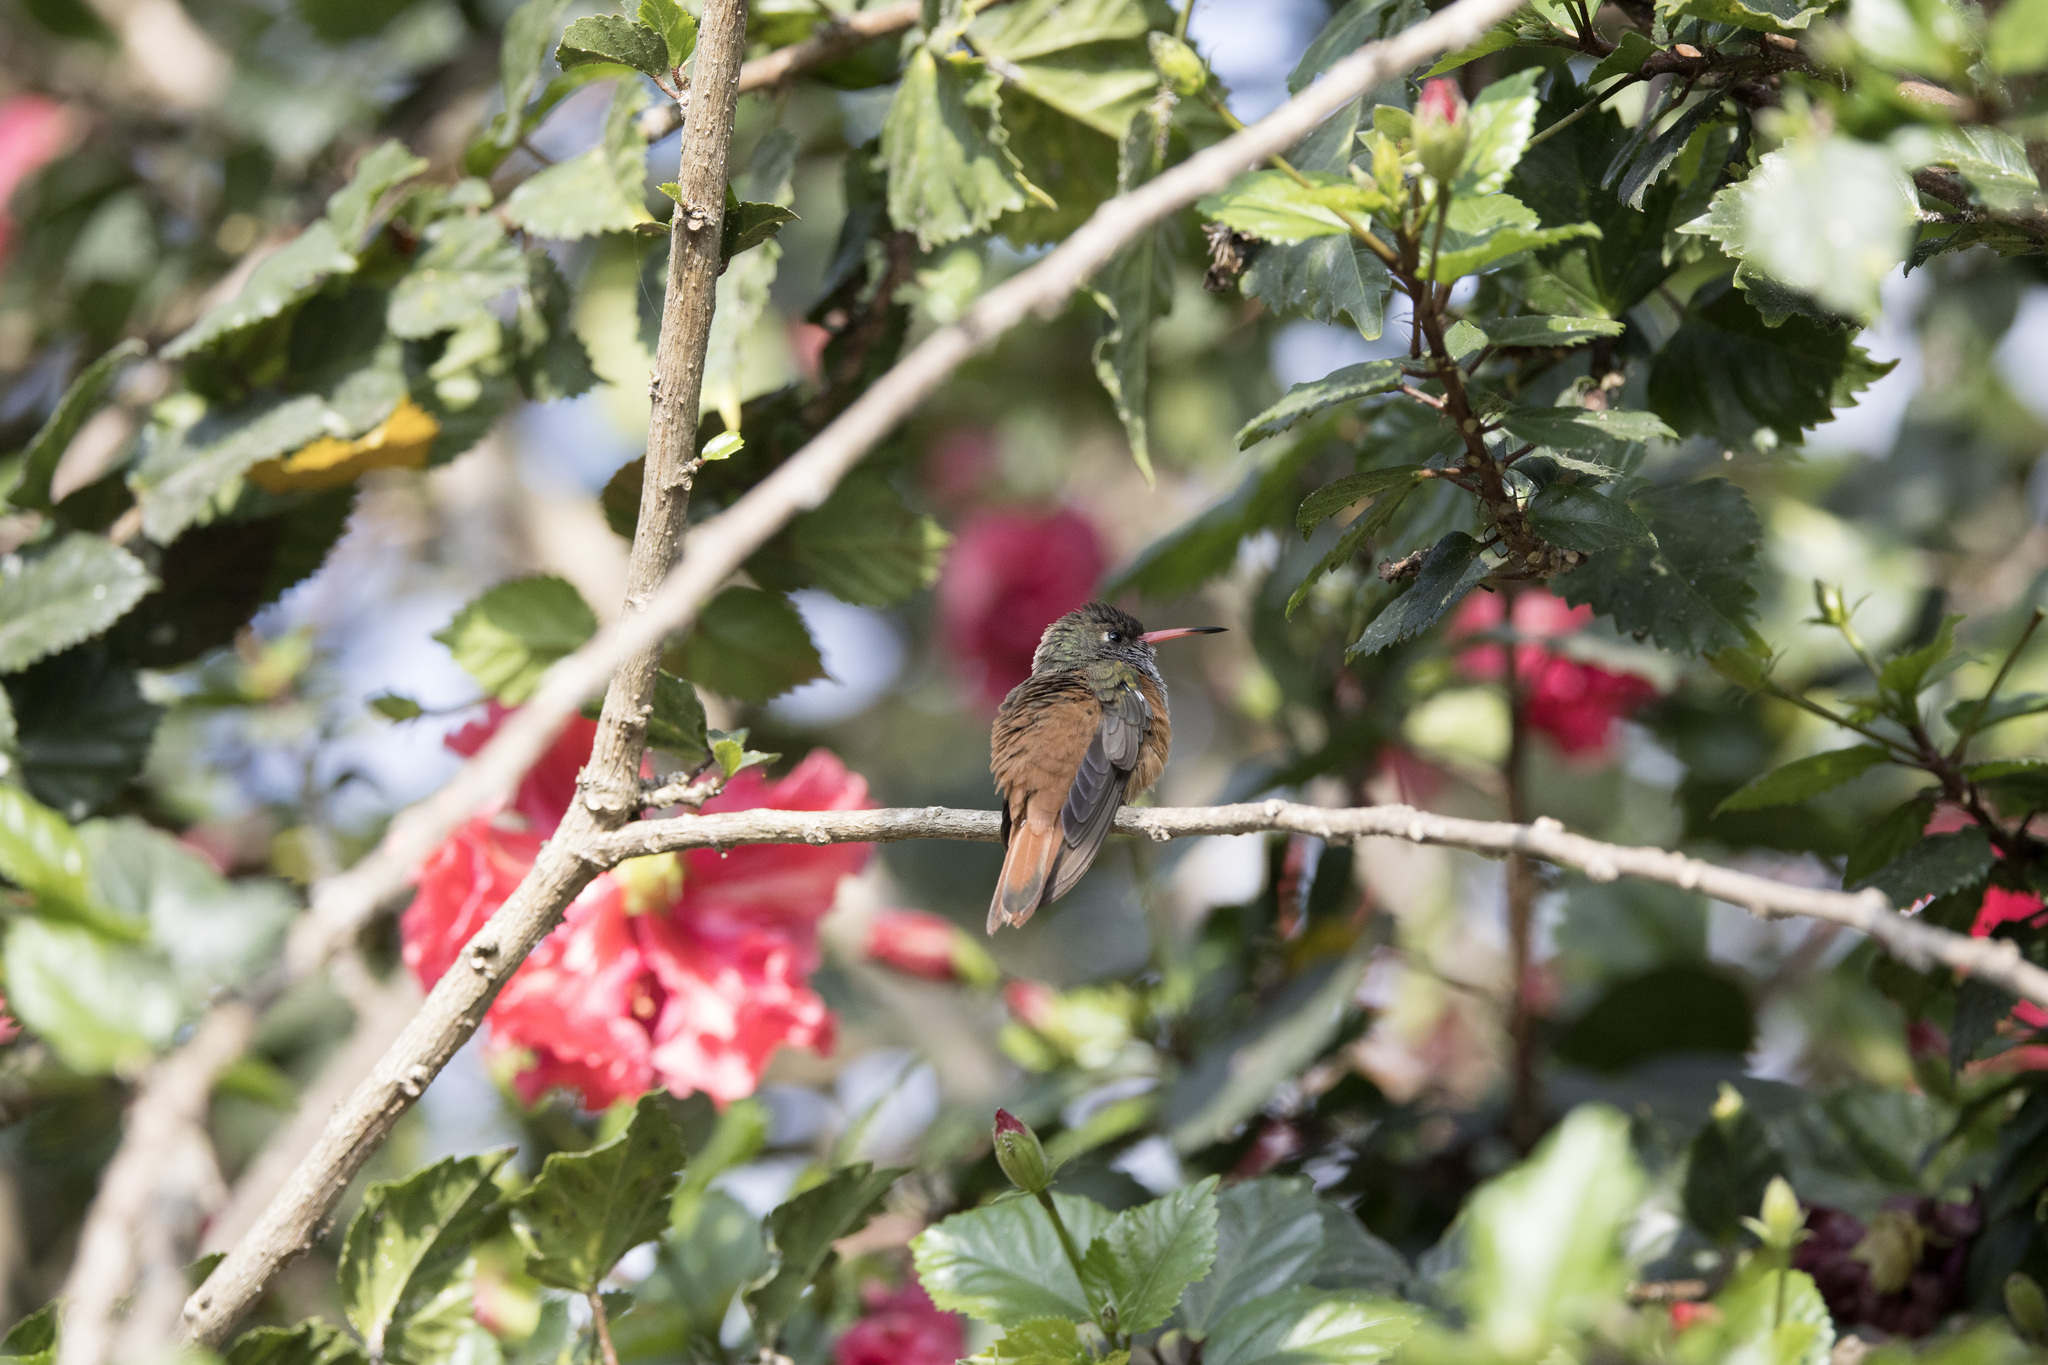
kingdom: Animalia
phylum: Chordata
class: Aves
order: Apodiformes
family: Trochilidae
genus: Amazilis
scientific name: Amazilis amazilia
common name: Amazilia hummingbird
